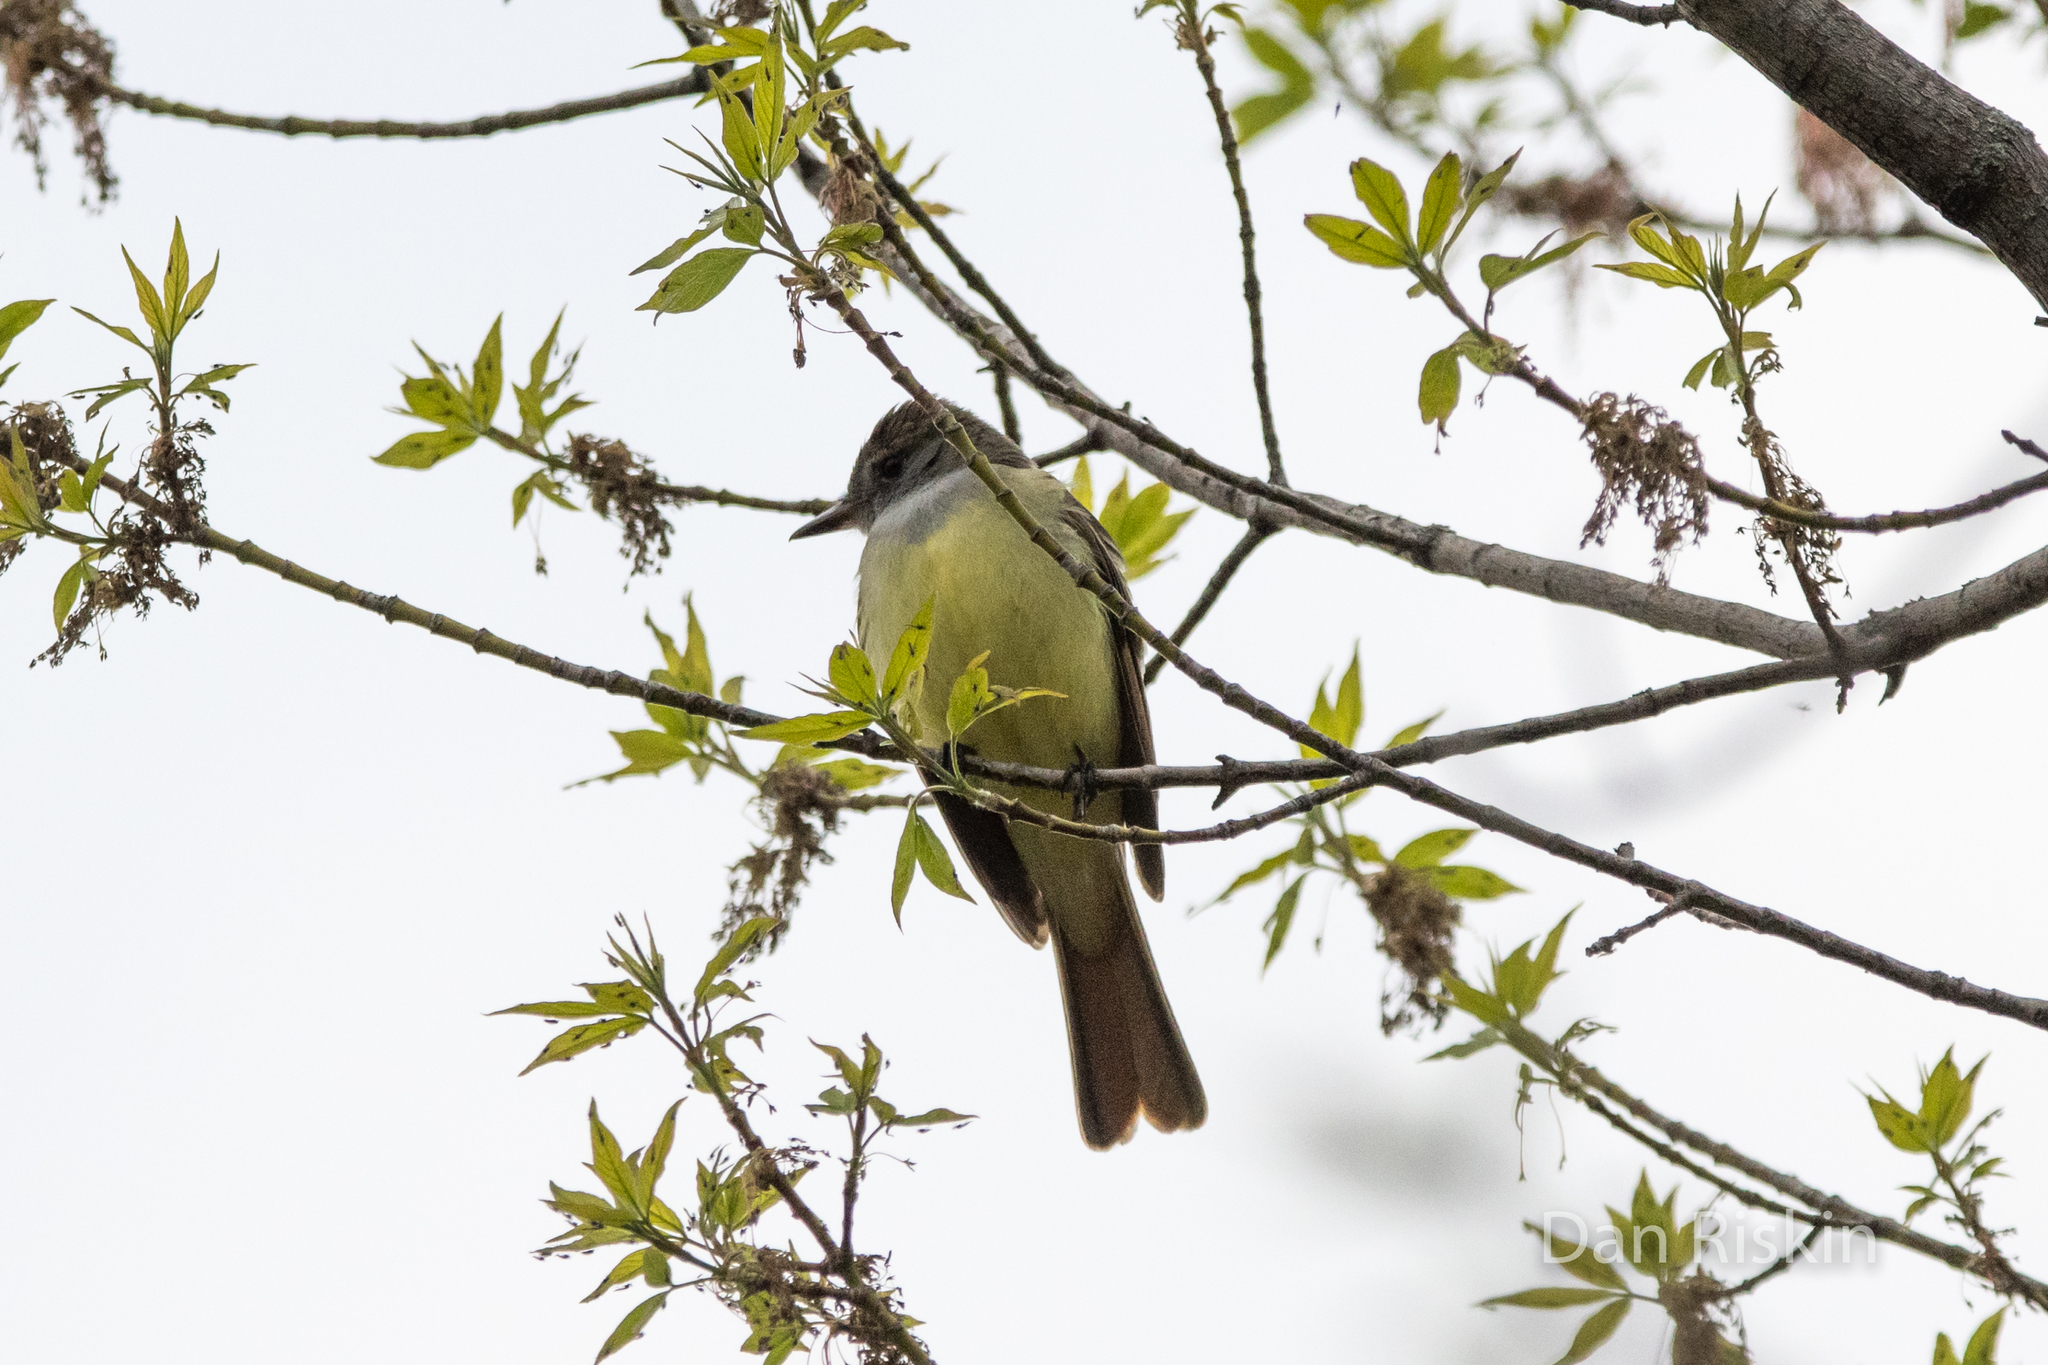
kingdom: Animalia
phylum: Chordata
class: Aves
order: Passeriformes
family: Tyrannidae
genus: Myiarchus
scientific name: Myiarchus crinitus
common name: Great crested flycatcher
